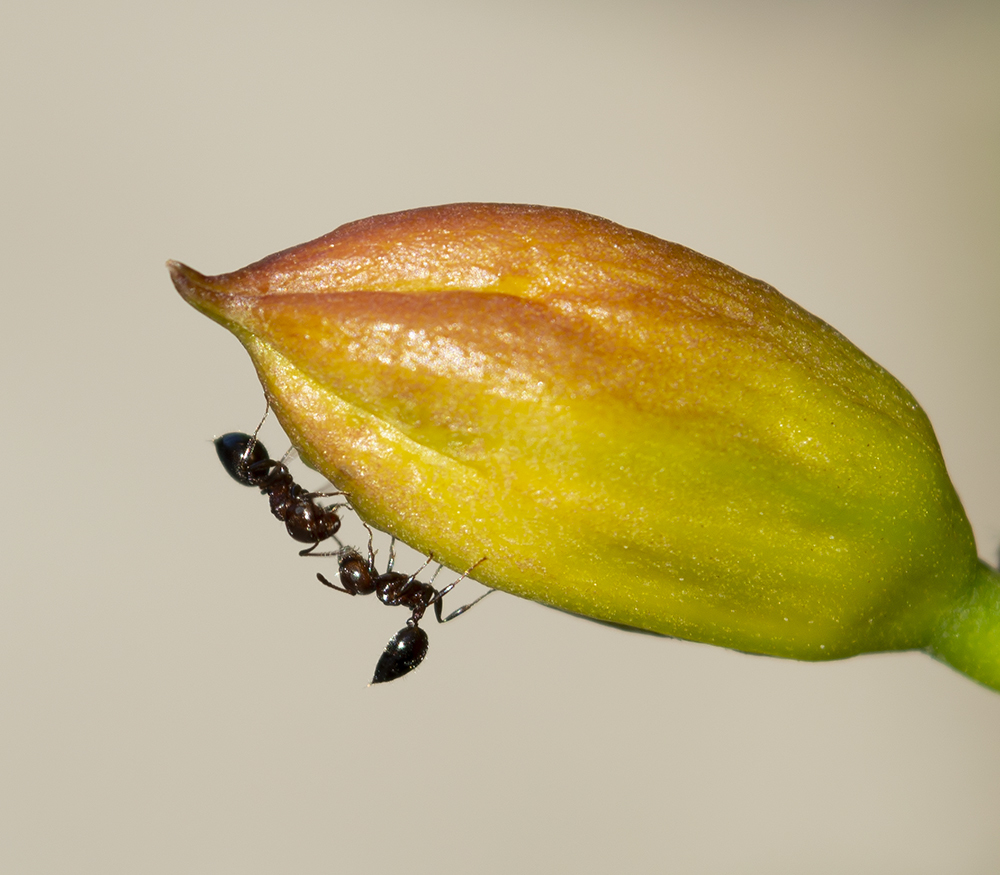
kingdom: Animalia
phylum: Arthropoda
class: Insecta
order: Hymenoptera
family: Formicidae
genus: Crematogaster
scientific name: Crematogaster ionia
